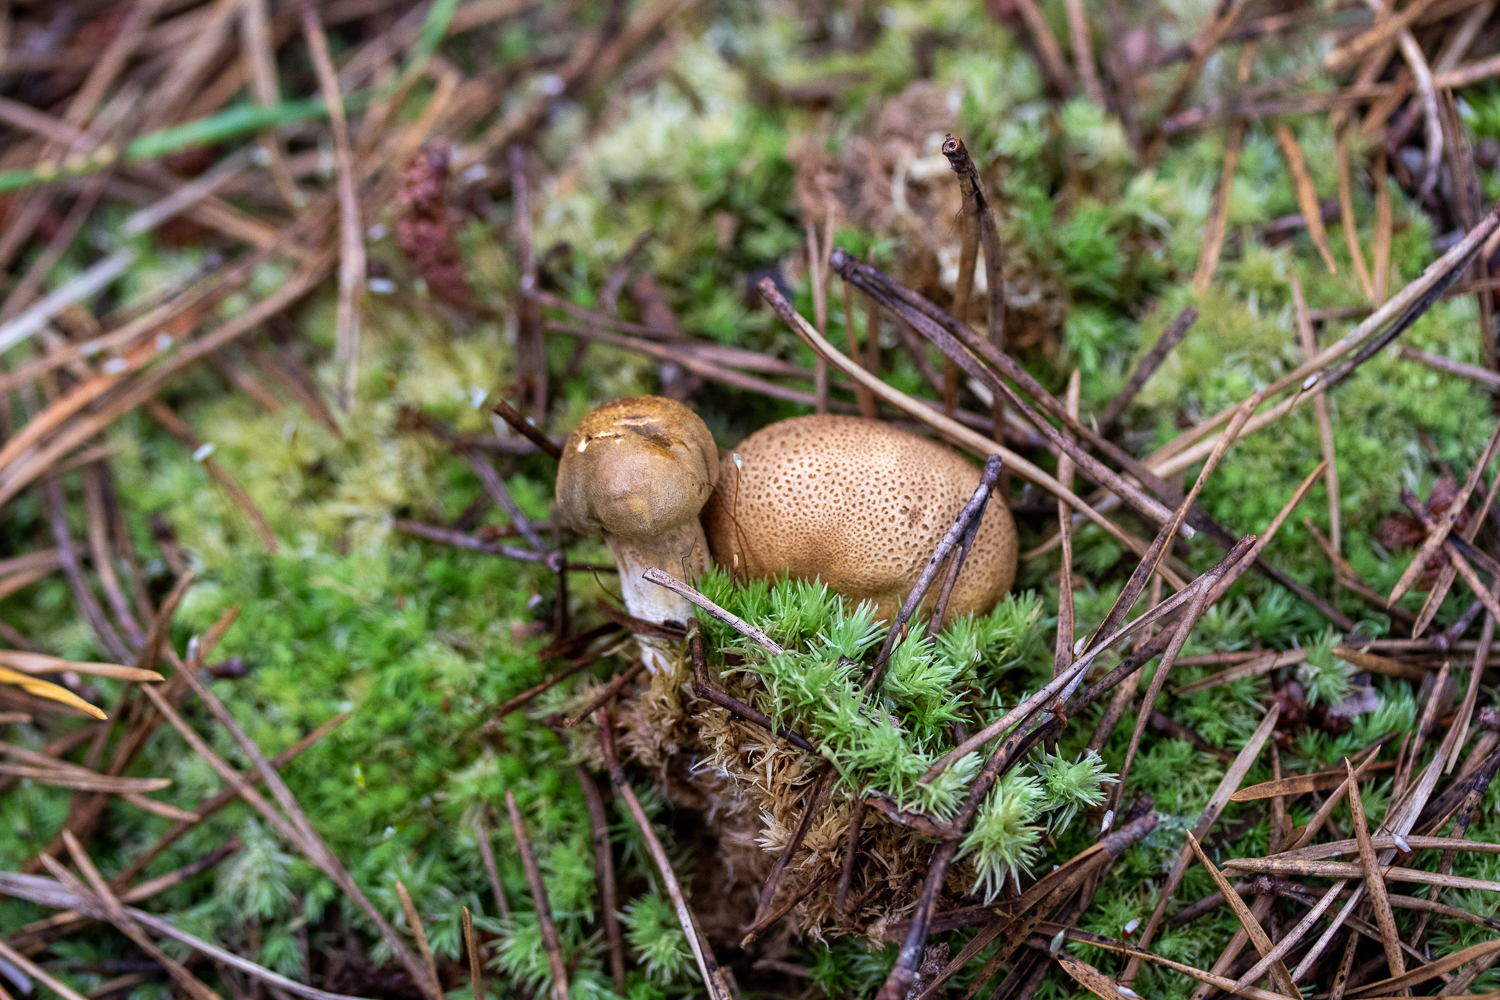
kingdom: Fungi
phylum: Basidiomycota
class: Agaricomycetes
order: Boletales
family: Boletaceae
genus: Pseudoboletus
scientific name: Pseudoboletus parasiticus
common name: Parasitic bolete
